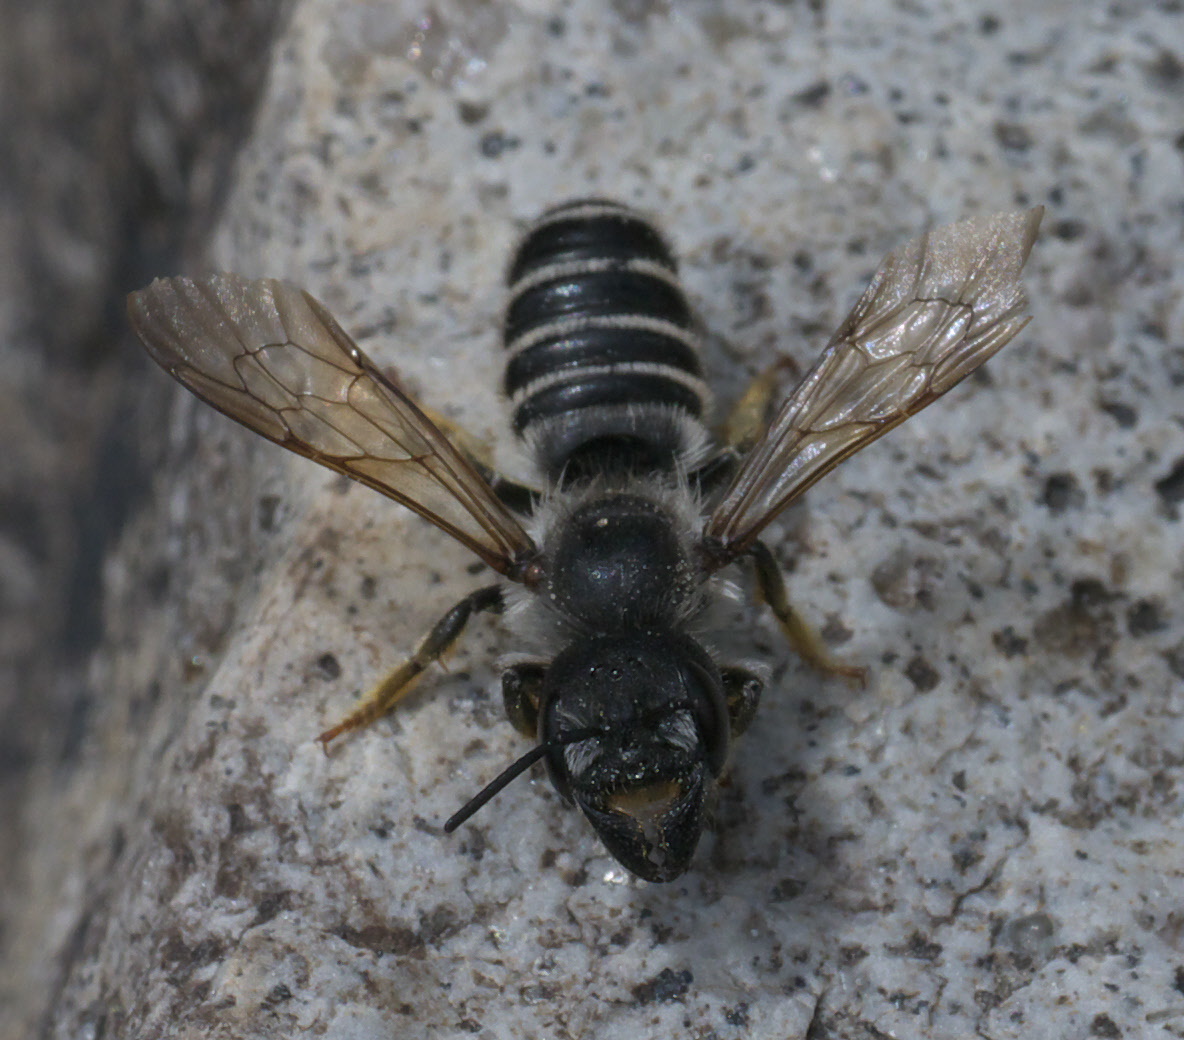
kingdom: Animalia
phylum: Arthropoda
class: Insecta
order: Hymenoptera
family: Megachilidae
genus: Megachile
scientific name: Megachile pugnata
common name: Pugnacious leafcutter bee
